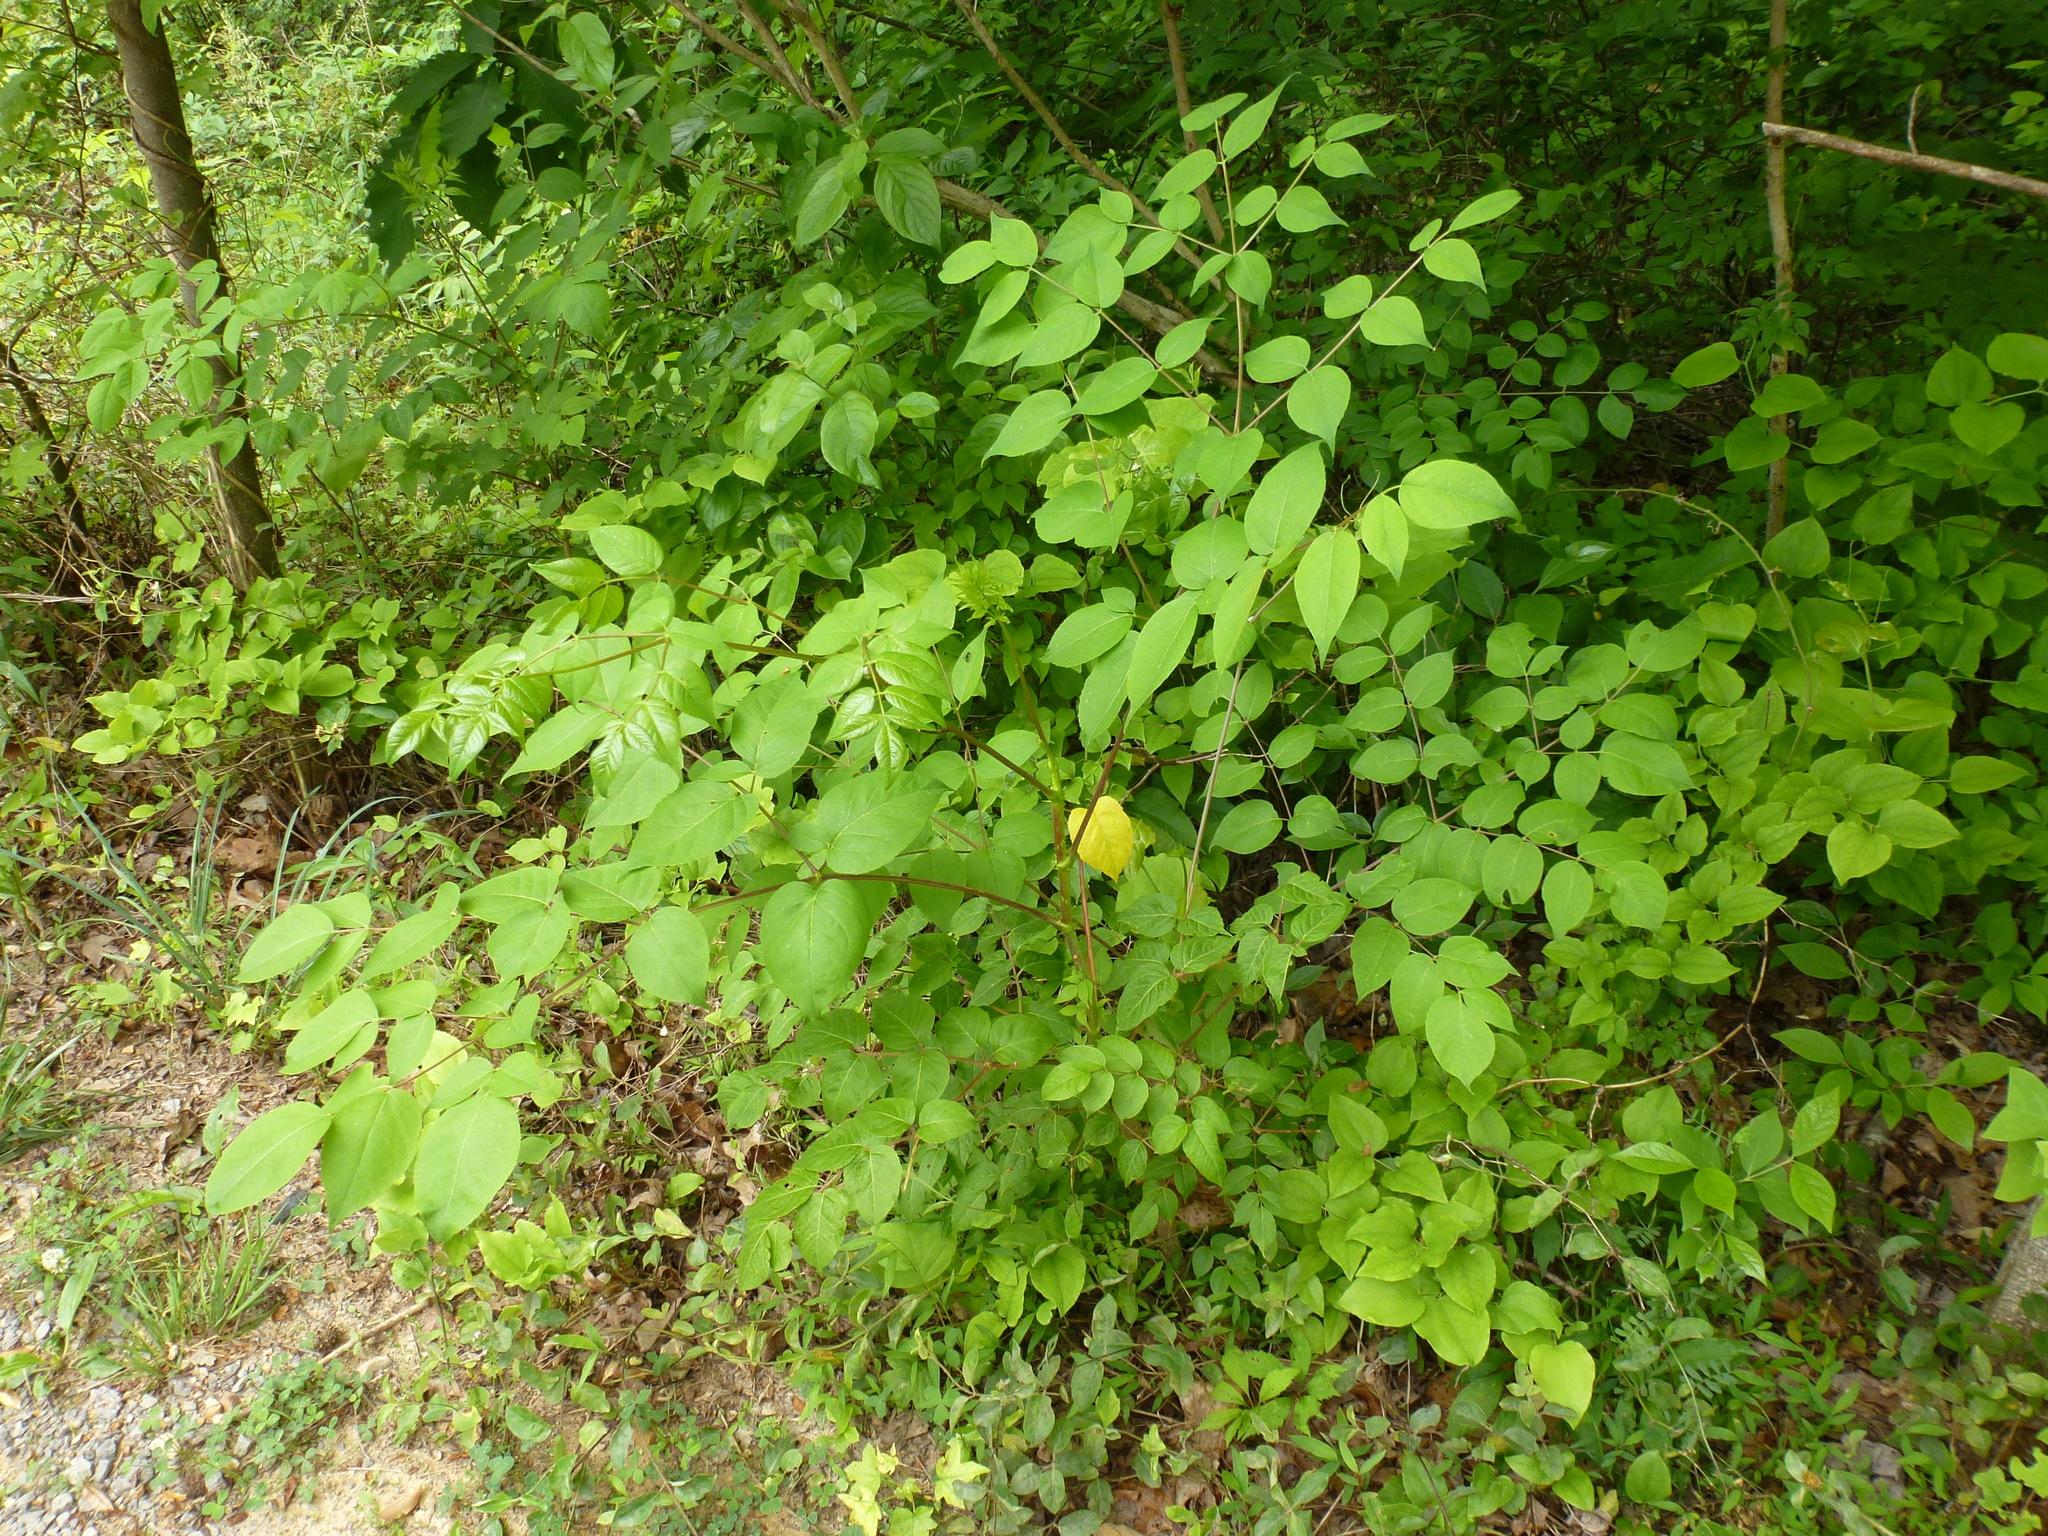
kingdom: Plantae
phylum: Tracheophyta
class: Magnoliopsida
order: Apiales
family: Araliaceae
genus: Aralia
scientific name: Aralia spinosa
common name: Hercules'-club
